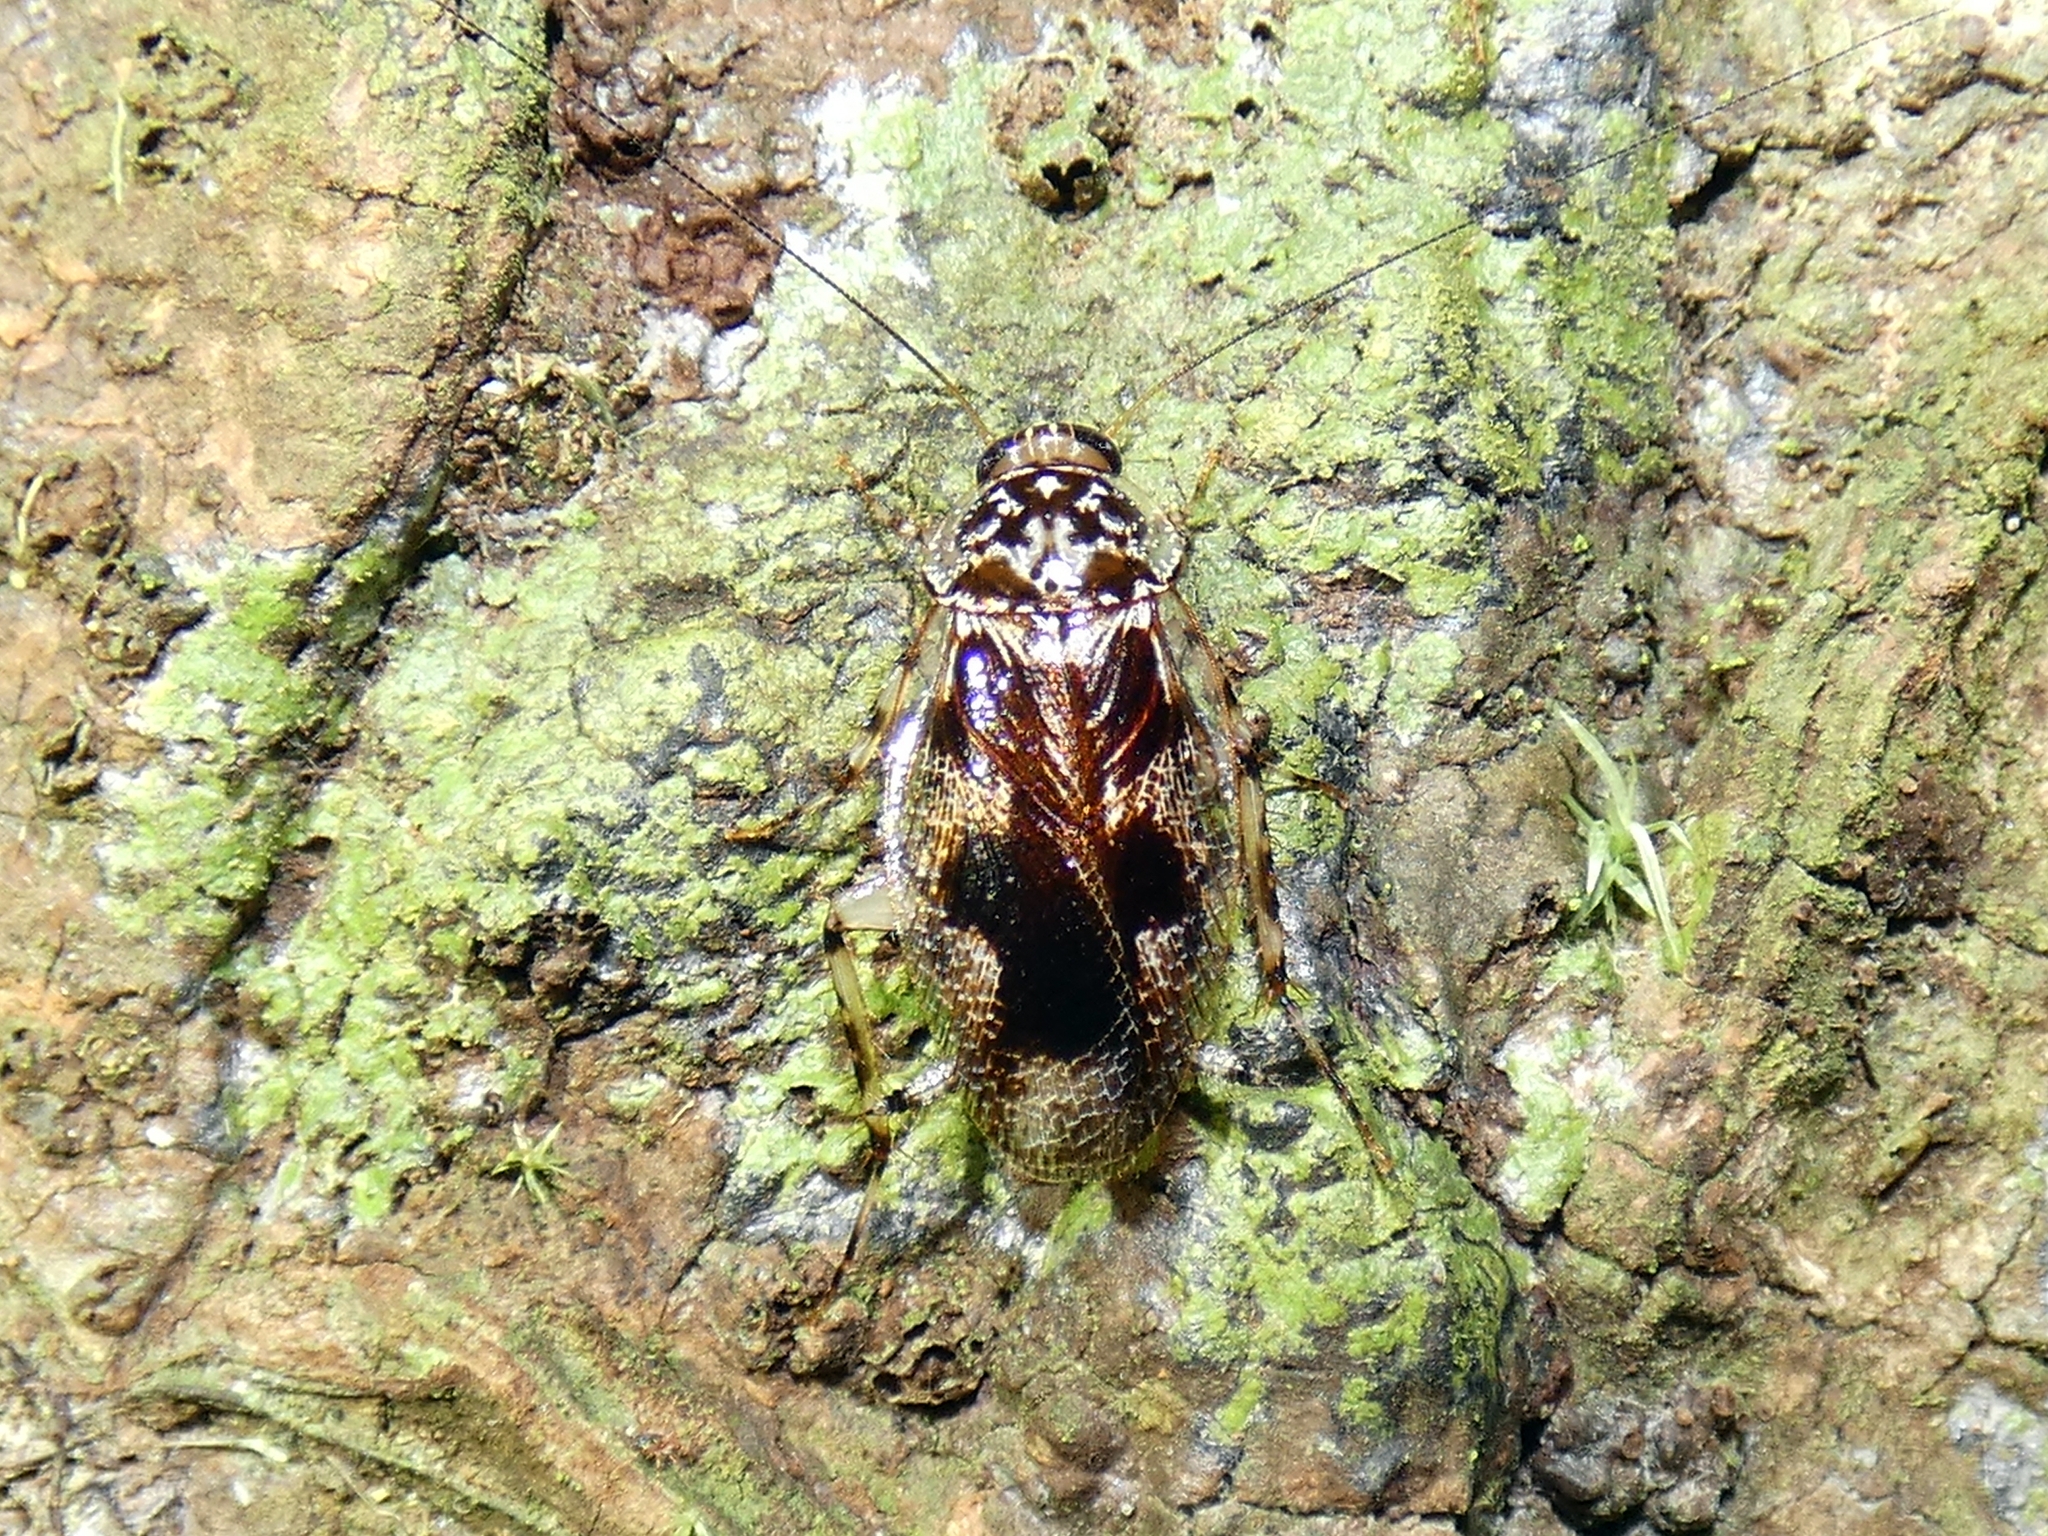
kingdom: Animalia
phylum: Arthropoda
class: Insecta
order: Blattodea
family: Ectobiidae
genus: Allacta
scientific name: Allacta australiensis
